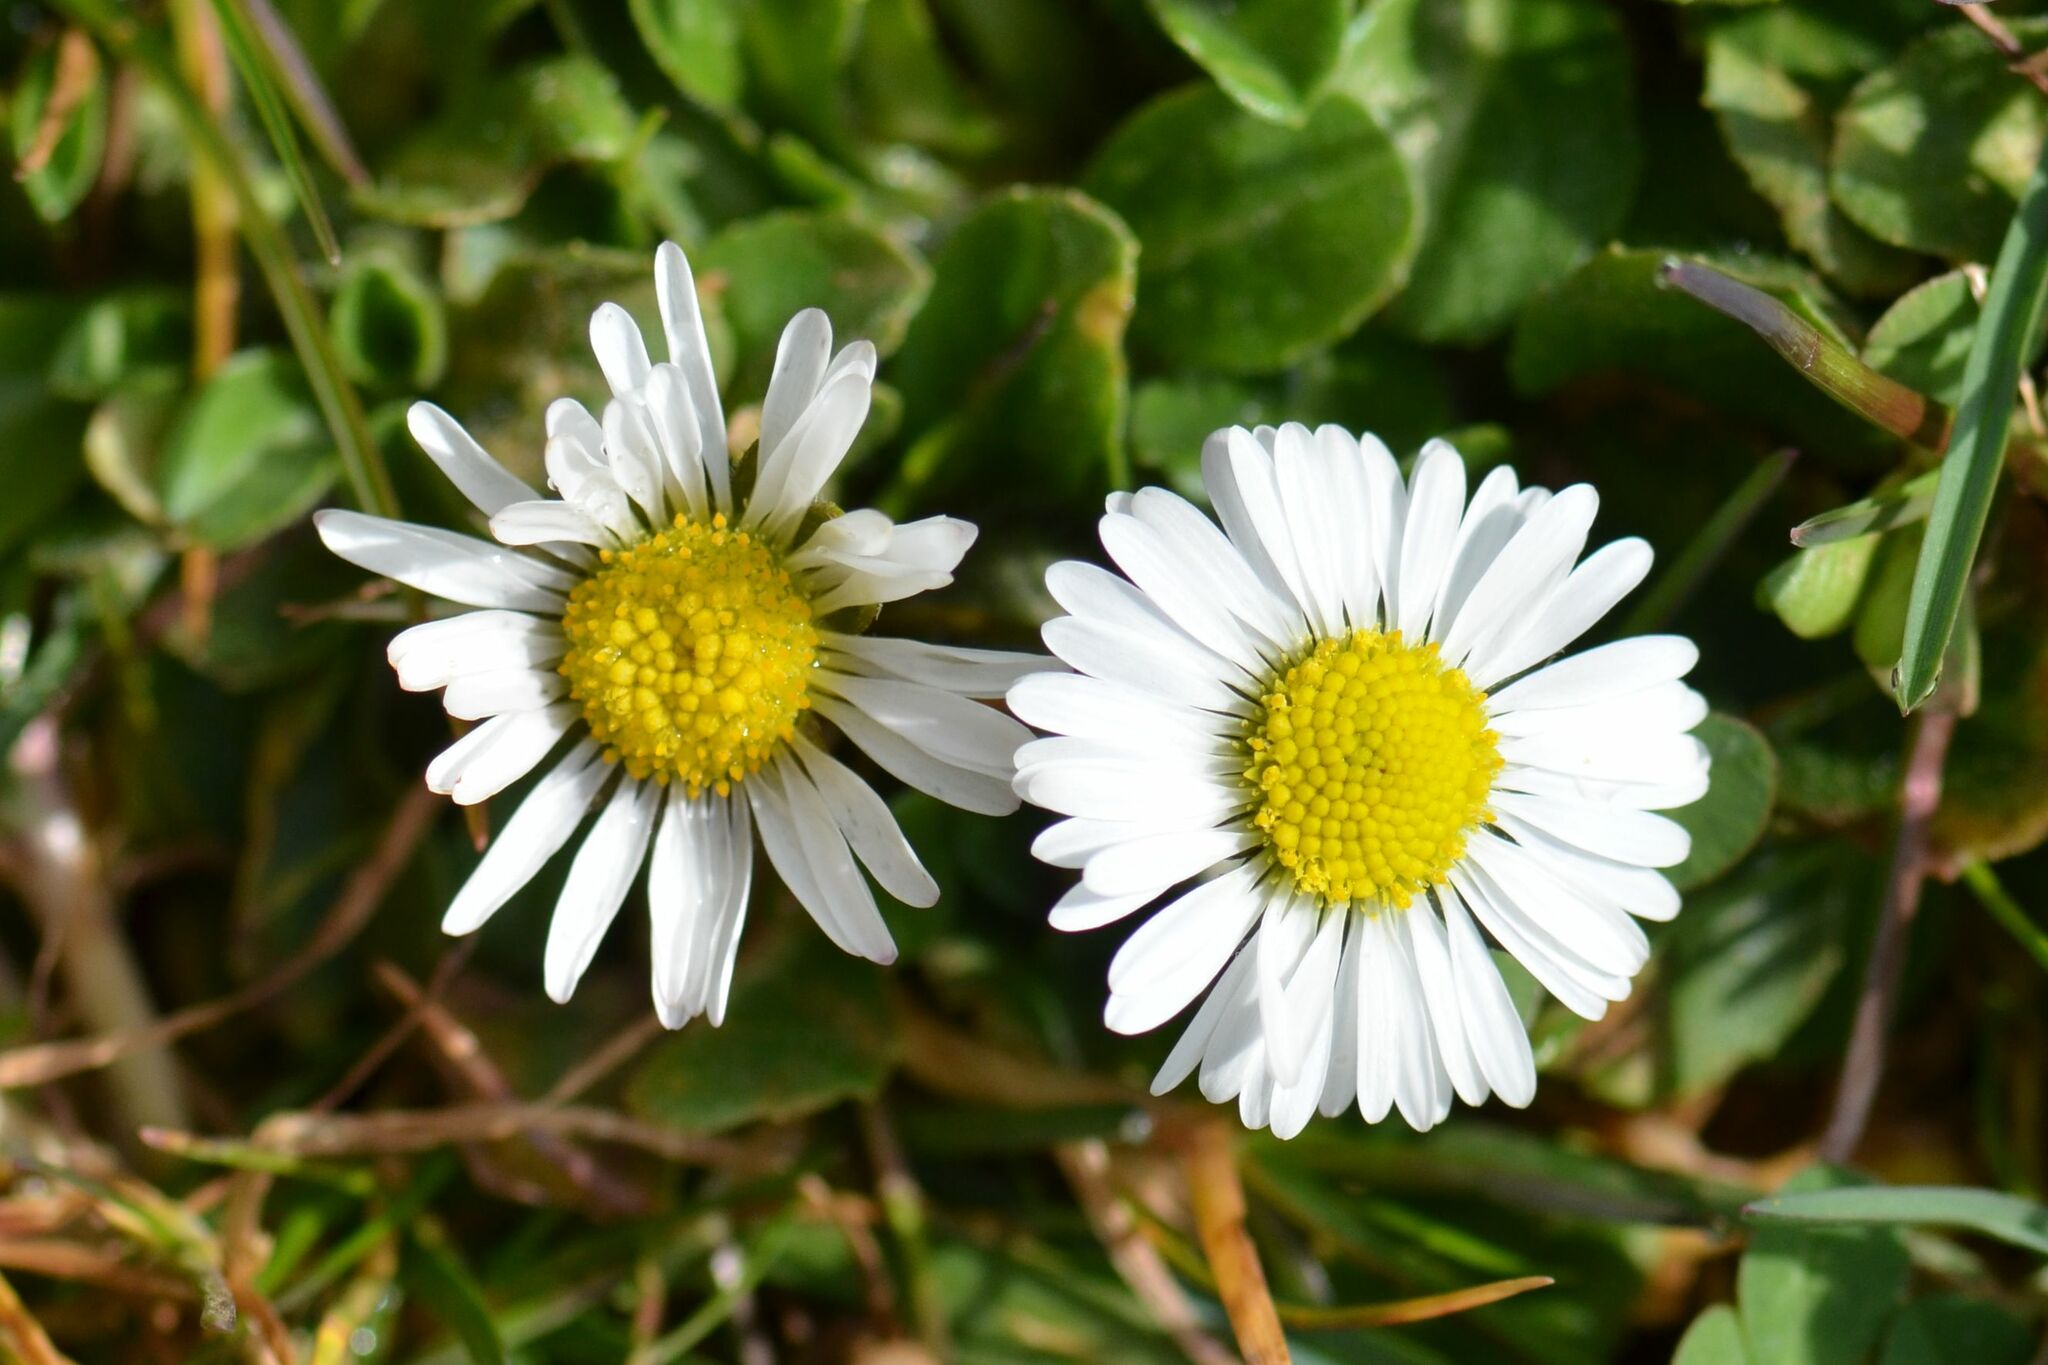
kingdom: Plantae
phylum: Tracheophyta
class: Magnoliopsida
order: Asterales
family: Asteraceae
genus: Bellis
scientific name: Bellis perennis
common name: Lawndaisy
